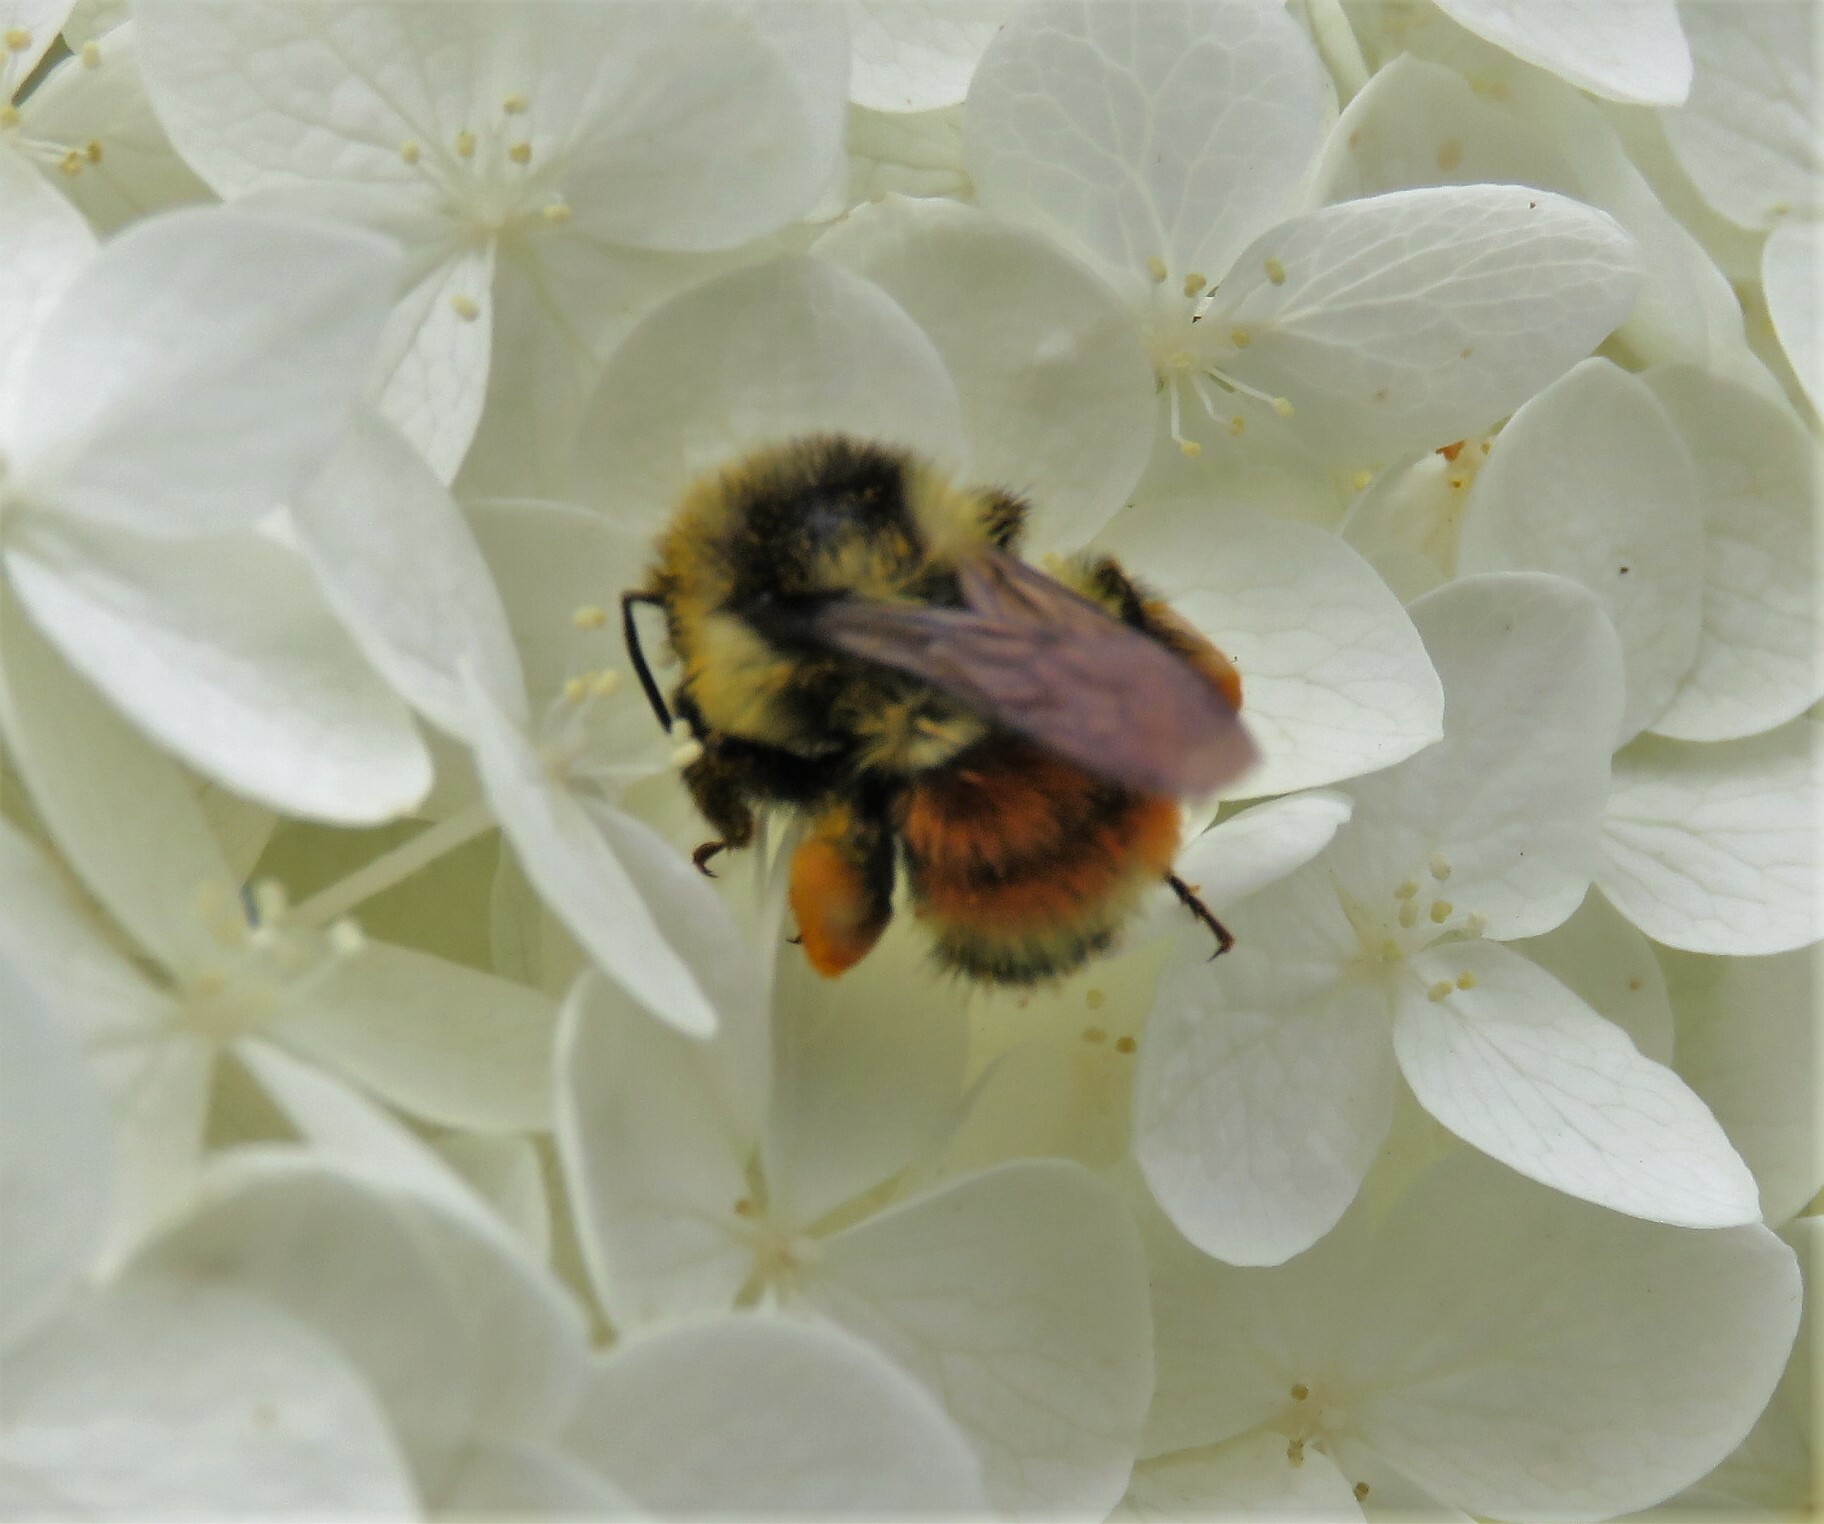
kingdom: Animalia
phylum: Arthropoda
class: Insecta
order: Hymenoptera
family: Apidae
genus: Bombus
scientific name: Bombus ternarius
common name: Tri-colored bumble bee
